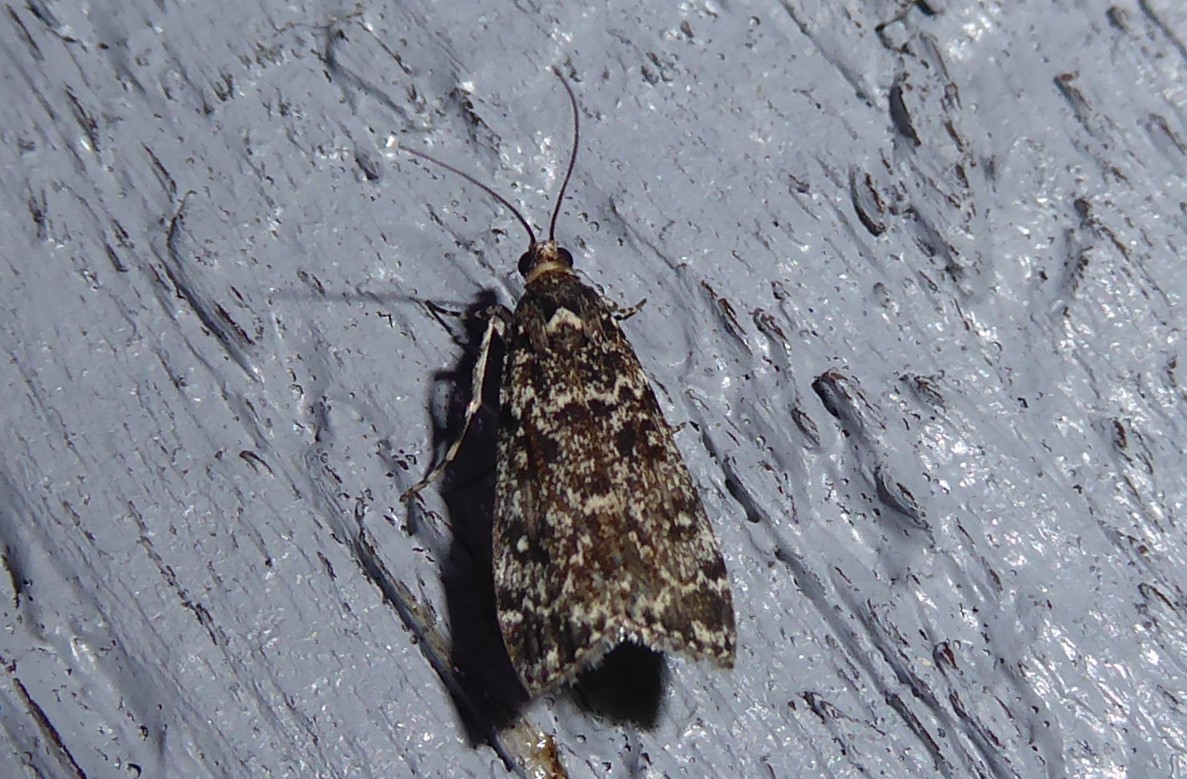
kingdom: Animalia
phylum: Arthropoda
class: Insecta
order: Lepidoptera
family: Crambidae
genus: Eudonia
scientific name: Eudonia philerga
